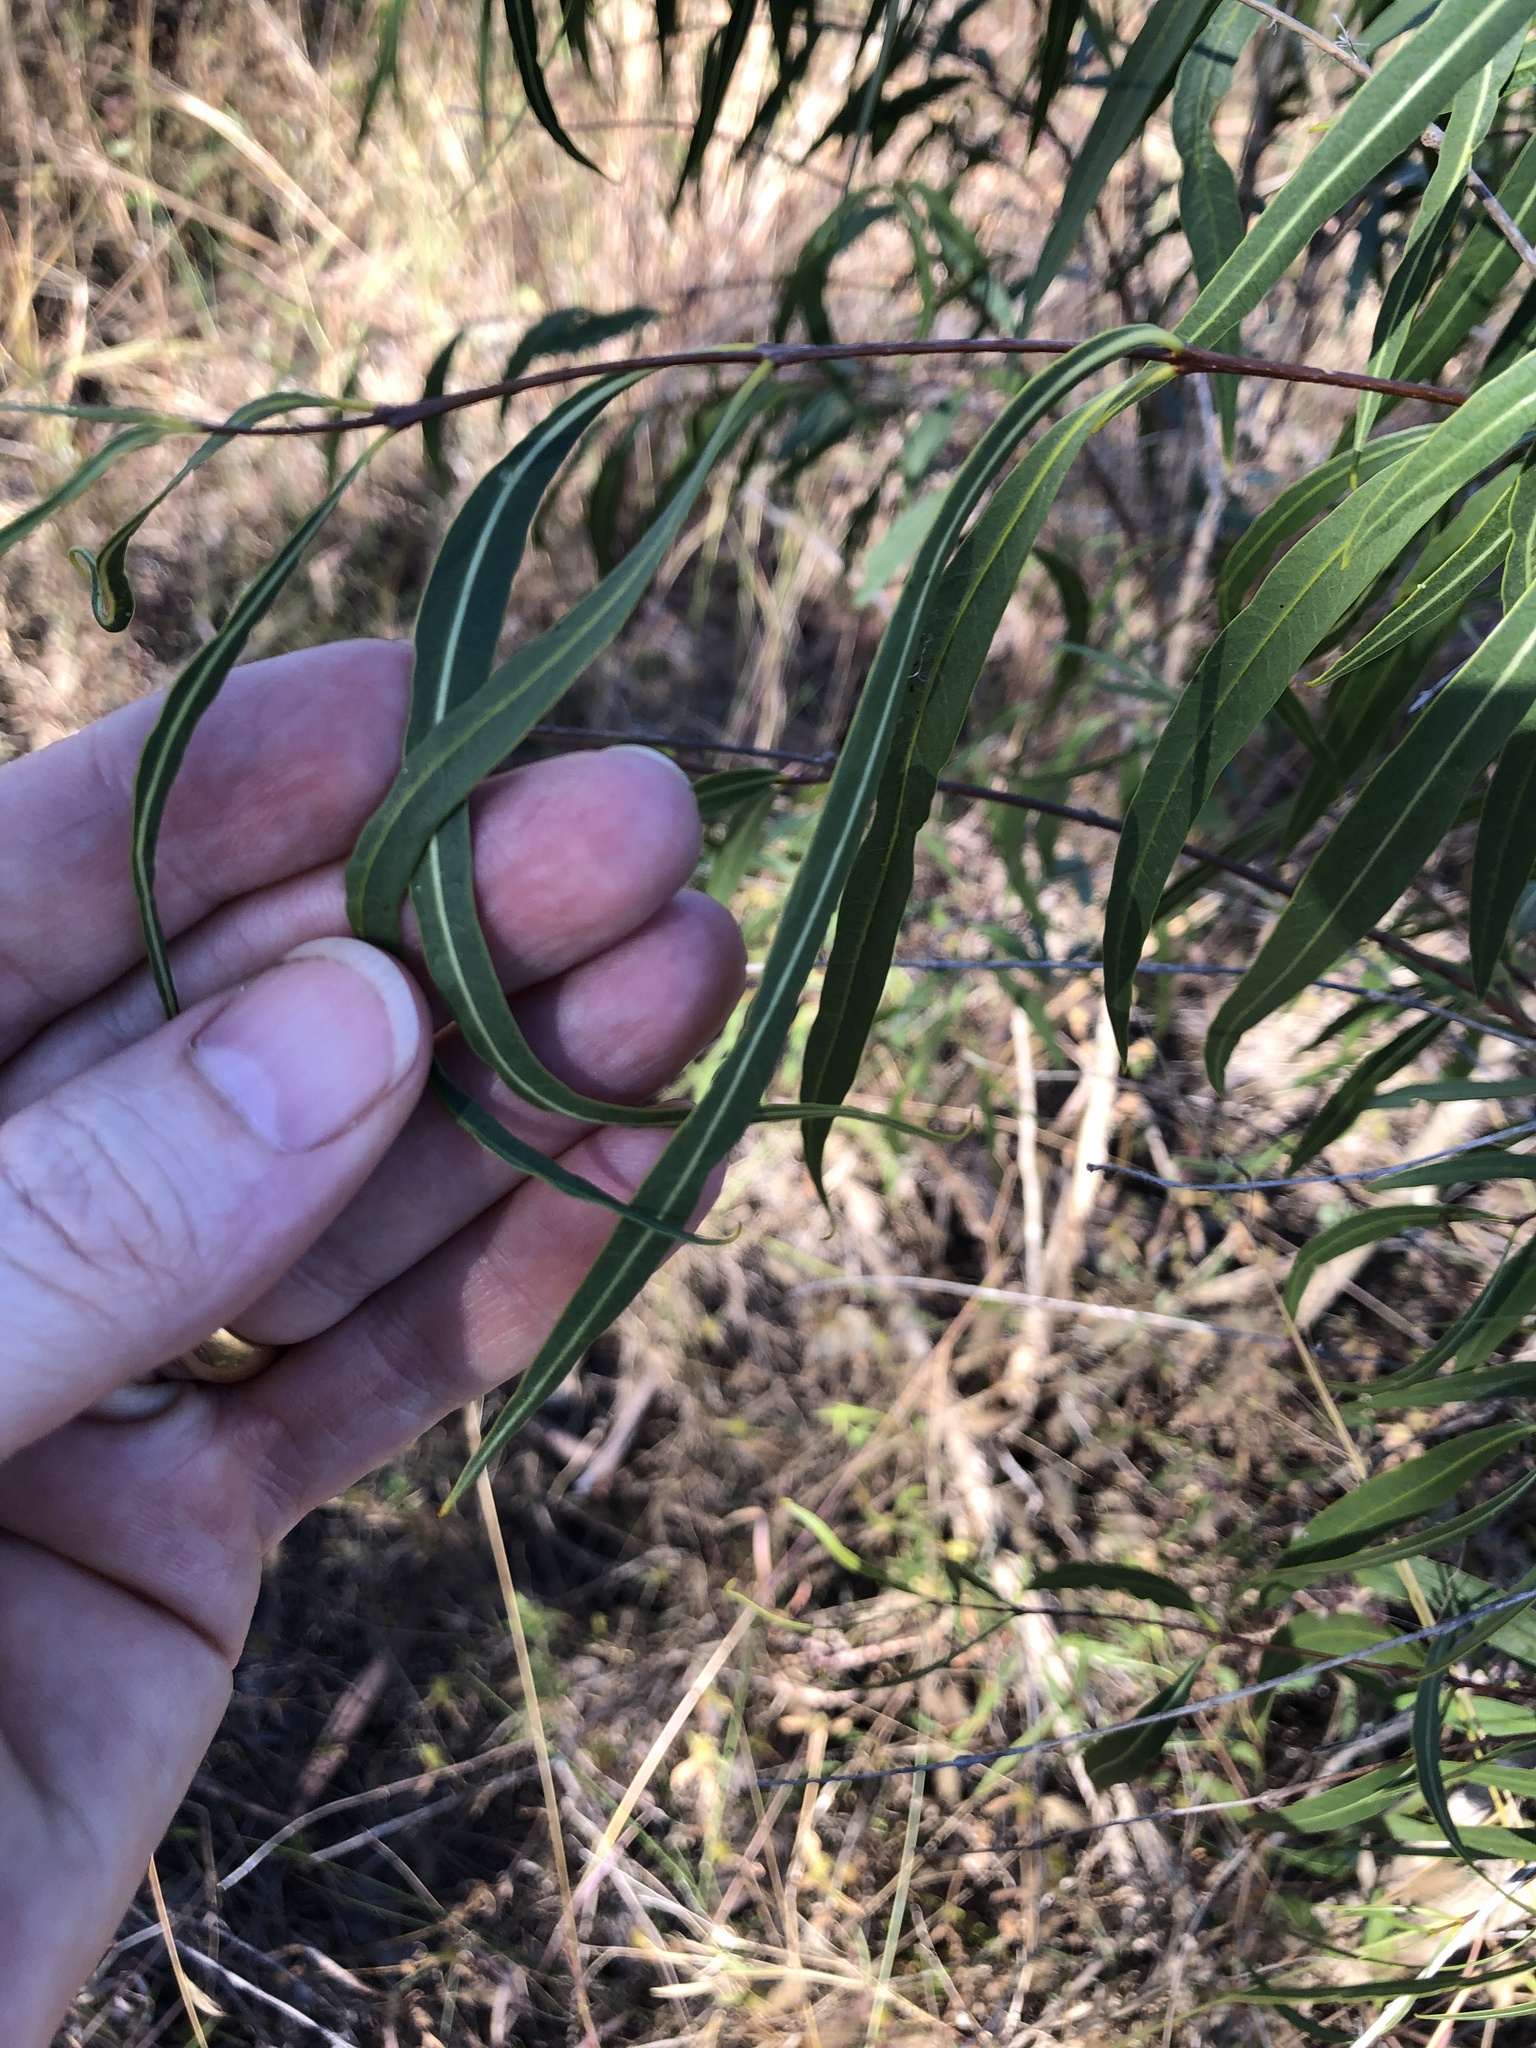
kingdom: Plantae
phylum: Tracheophyta
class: Magnoliopsida
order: Gentianales
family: Apocynaceae
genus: Wrightia
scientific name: Wrightia saligna
